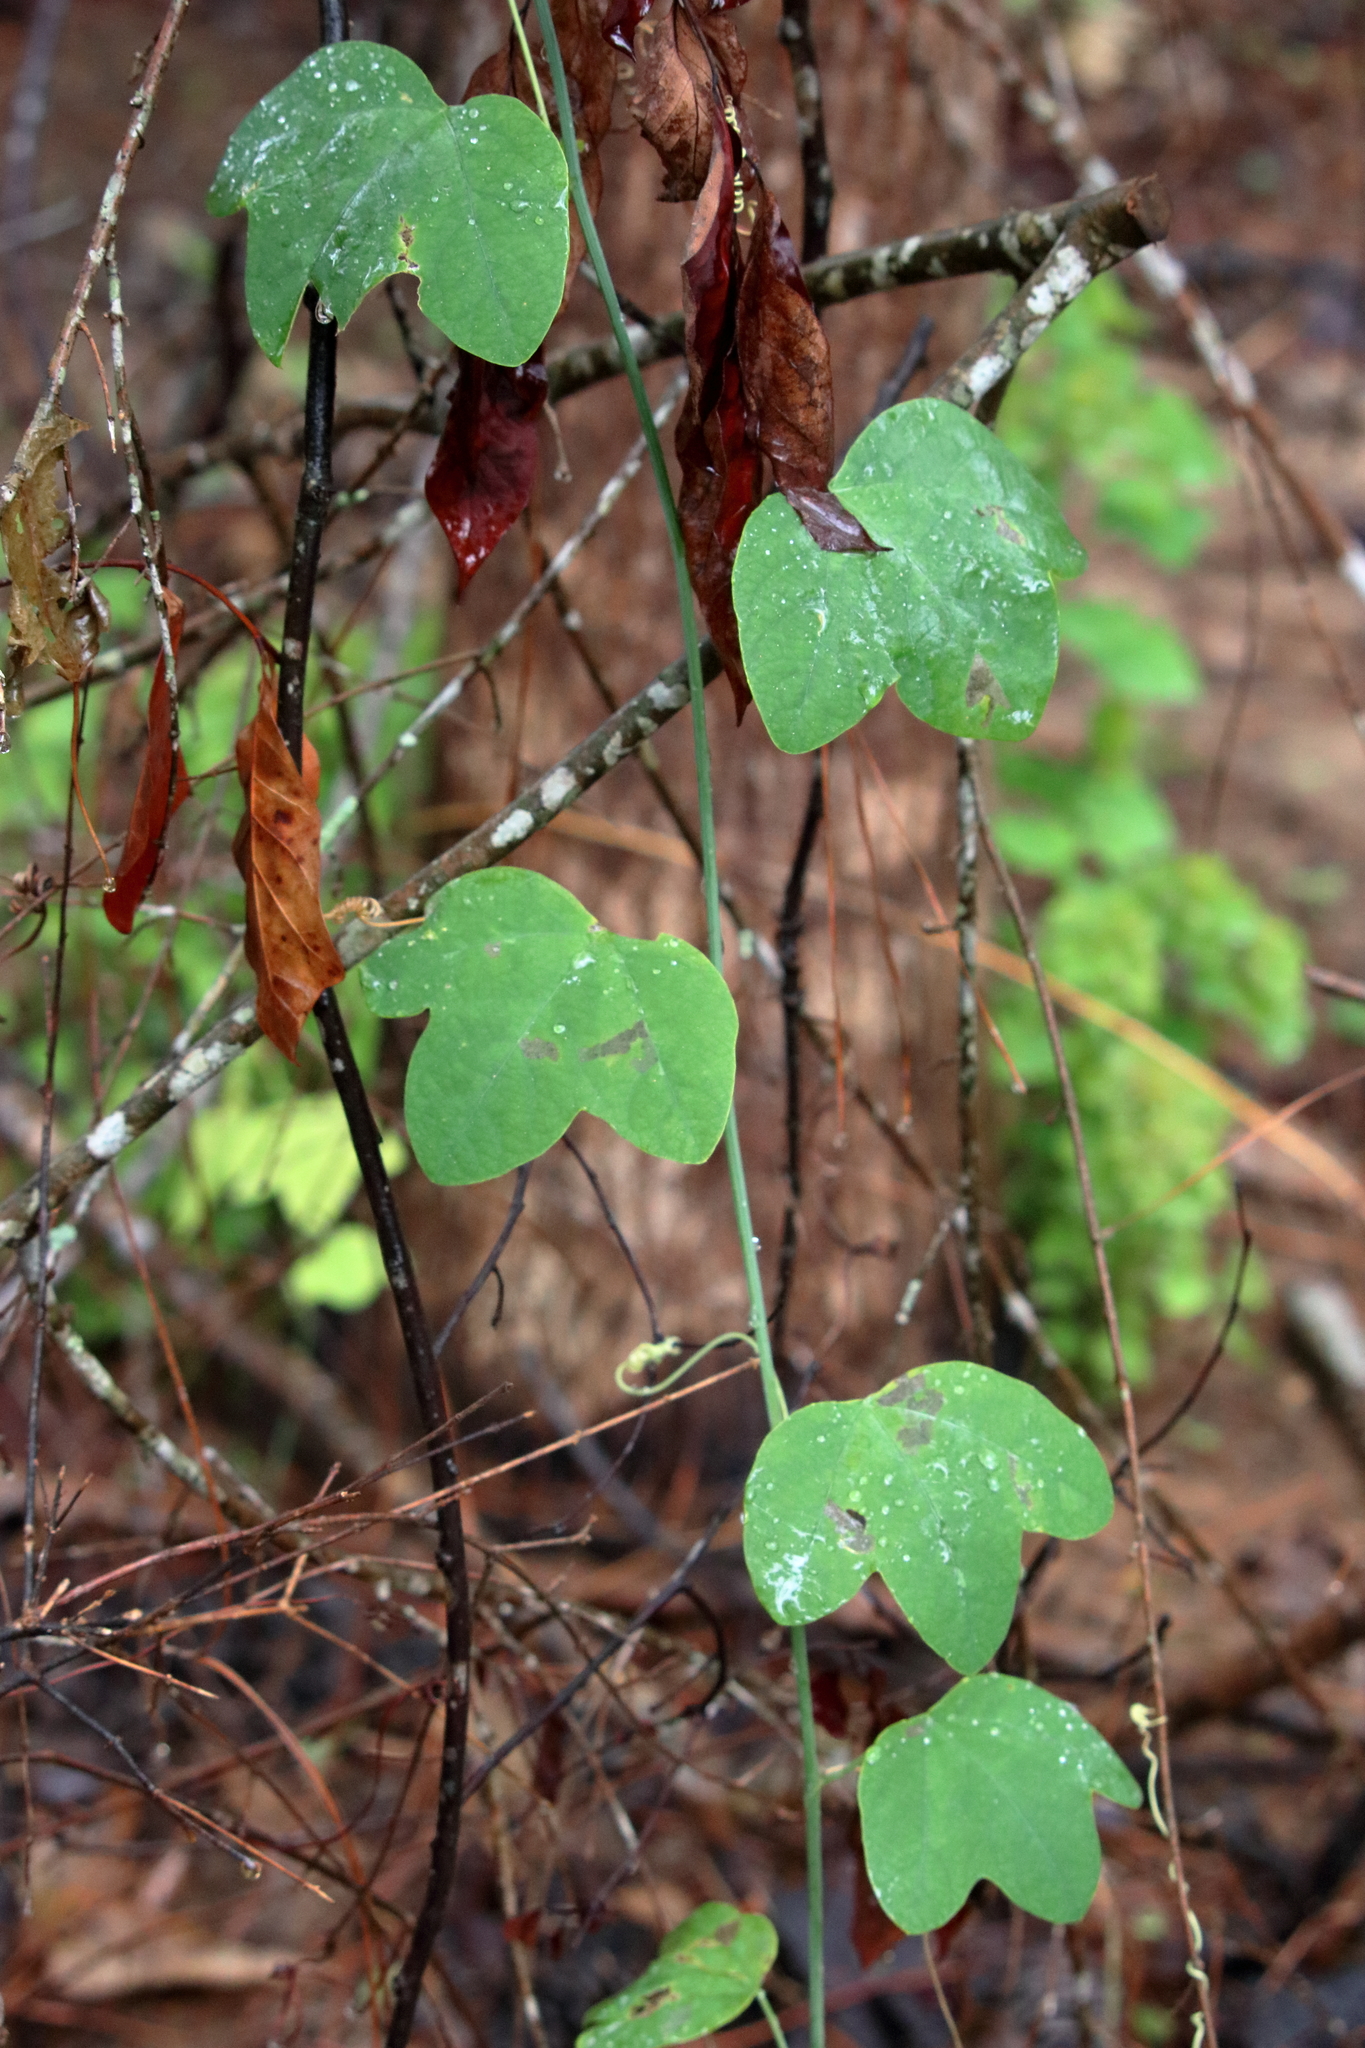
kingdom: Plantae
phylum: Tracheophyta
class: Magnoliopsida
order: Malpighiales
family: Passifloraceae
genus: Passiflora
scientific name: Passiflora lutea
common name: Yellow passionflower
